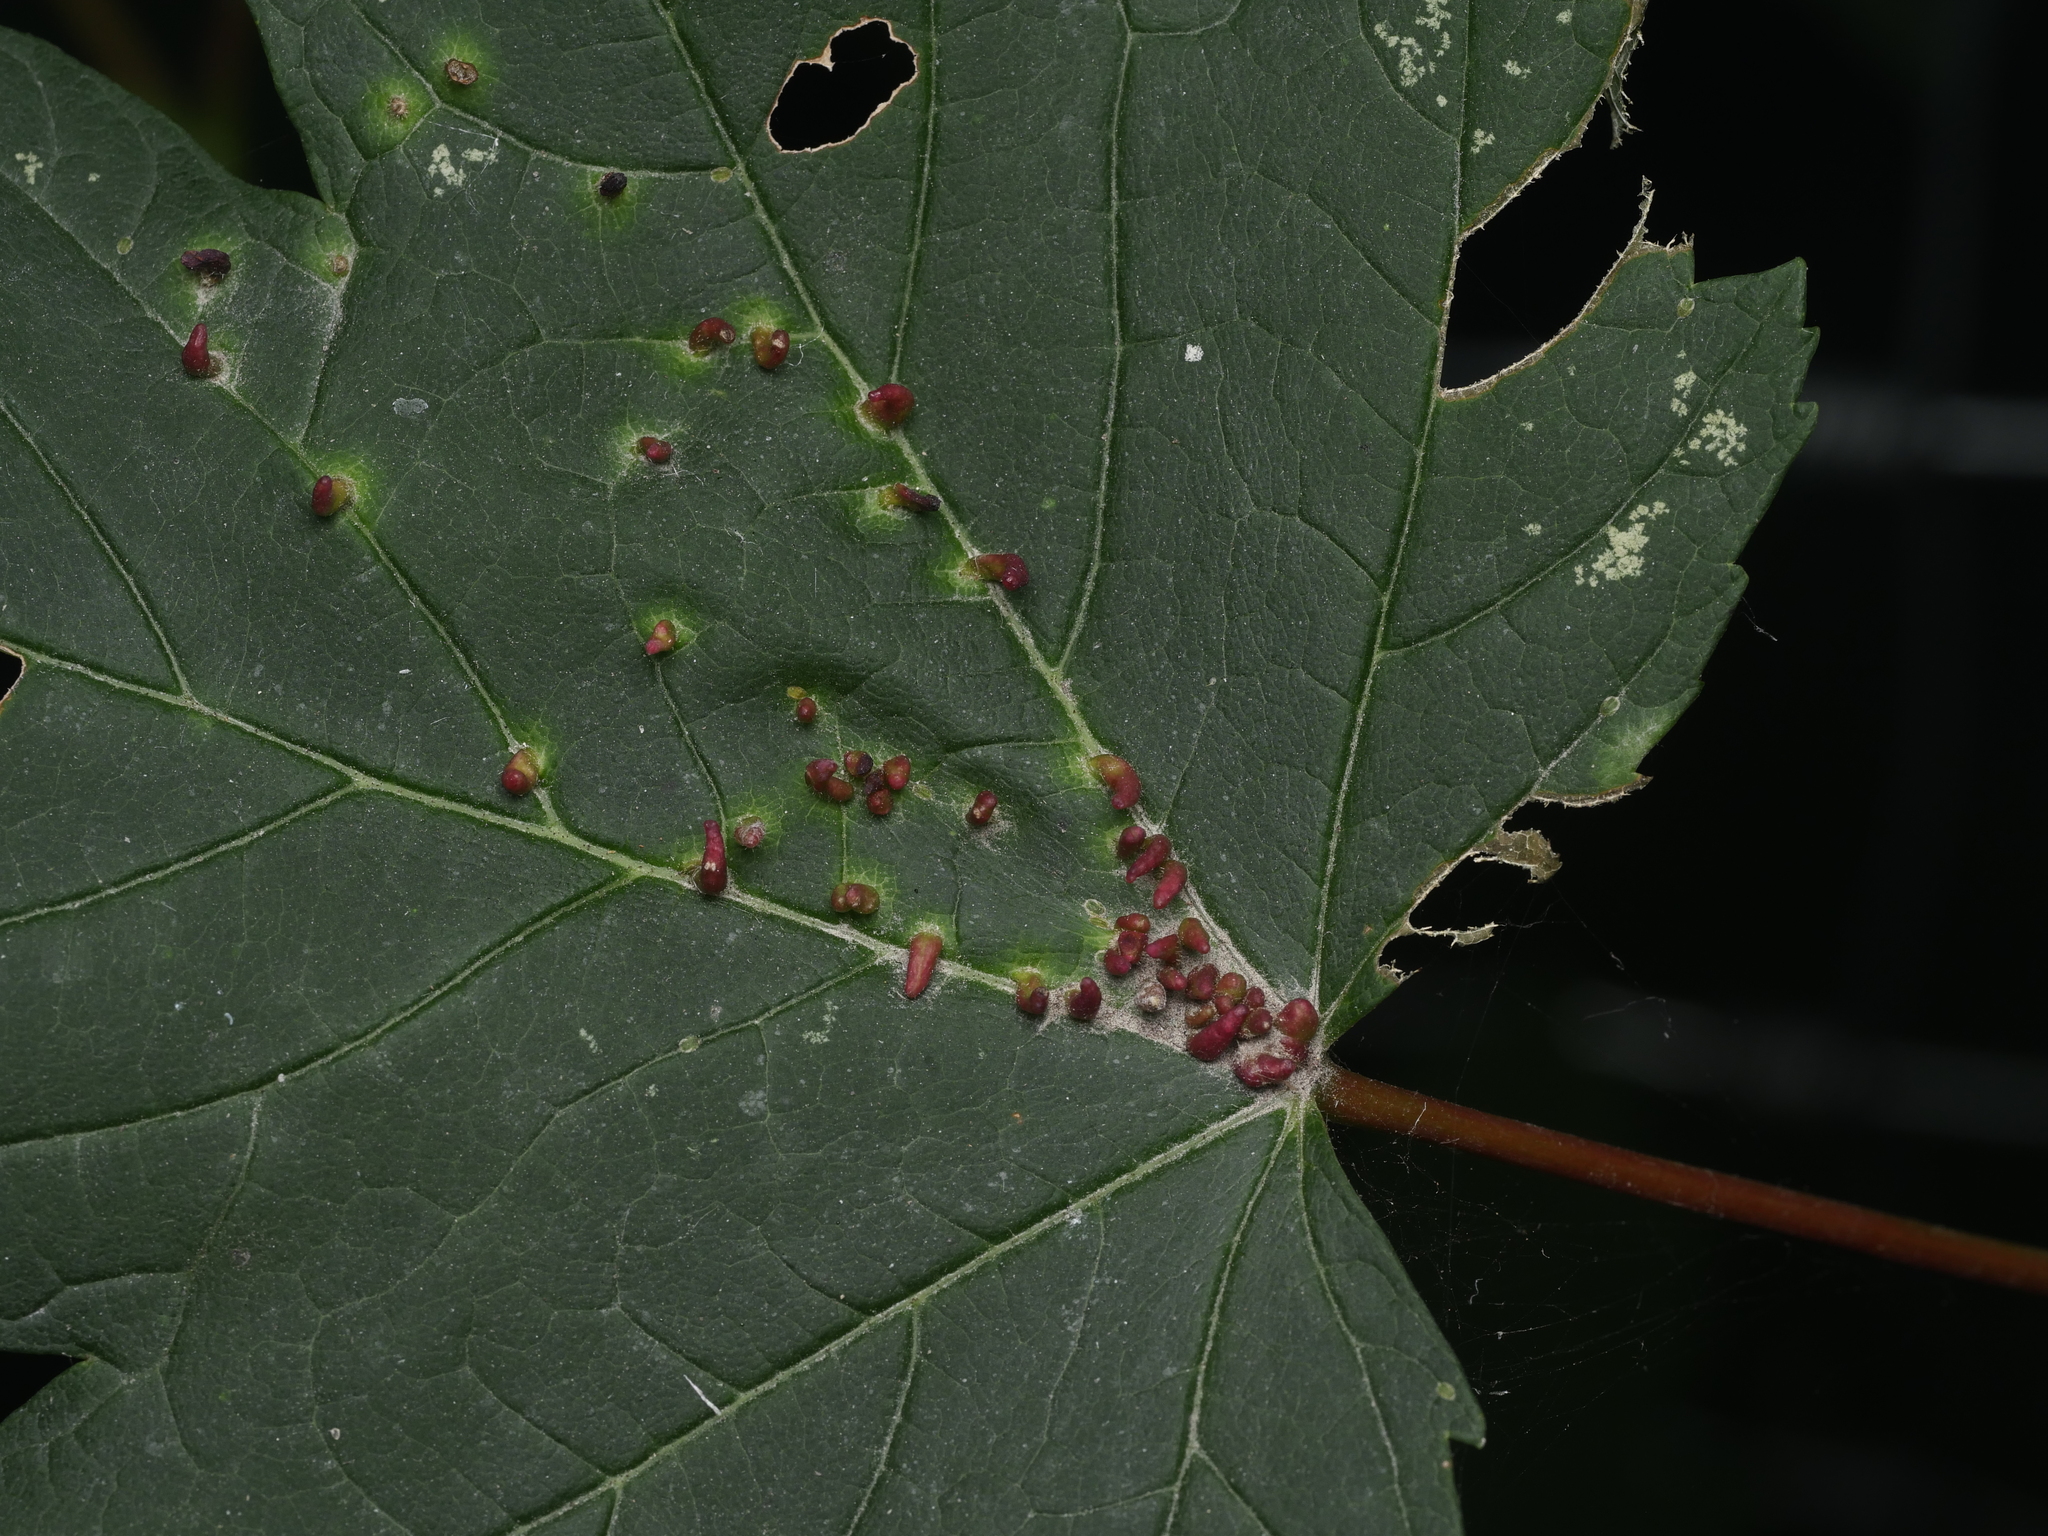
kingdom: Animalia
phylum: Arthropoda
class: Arachnida
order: Trombidiformes
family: Eriophyidae
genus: Aceria
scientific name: Aceria cephaloneus
